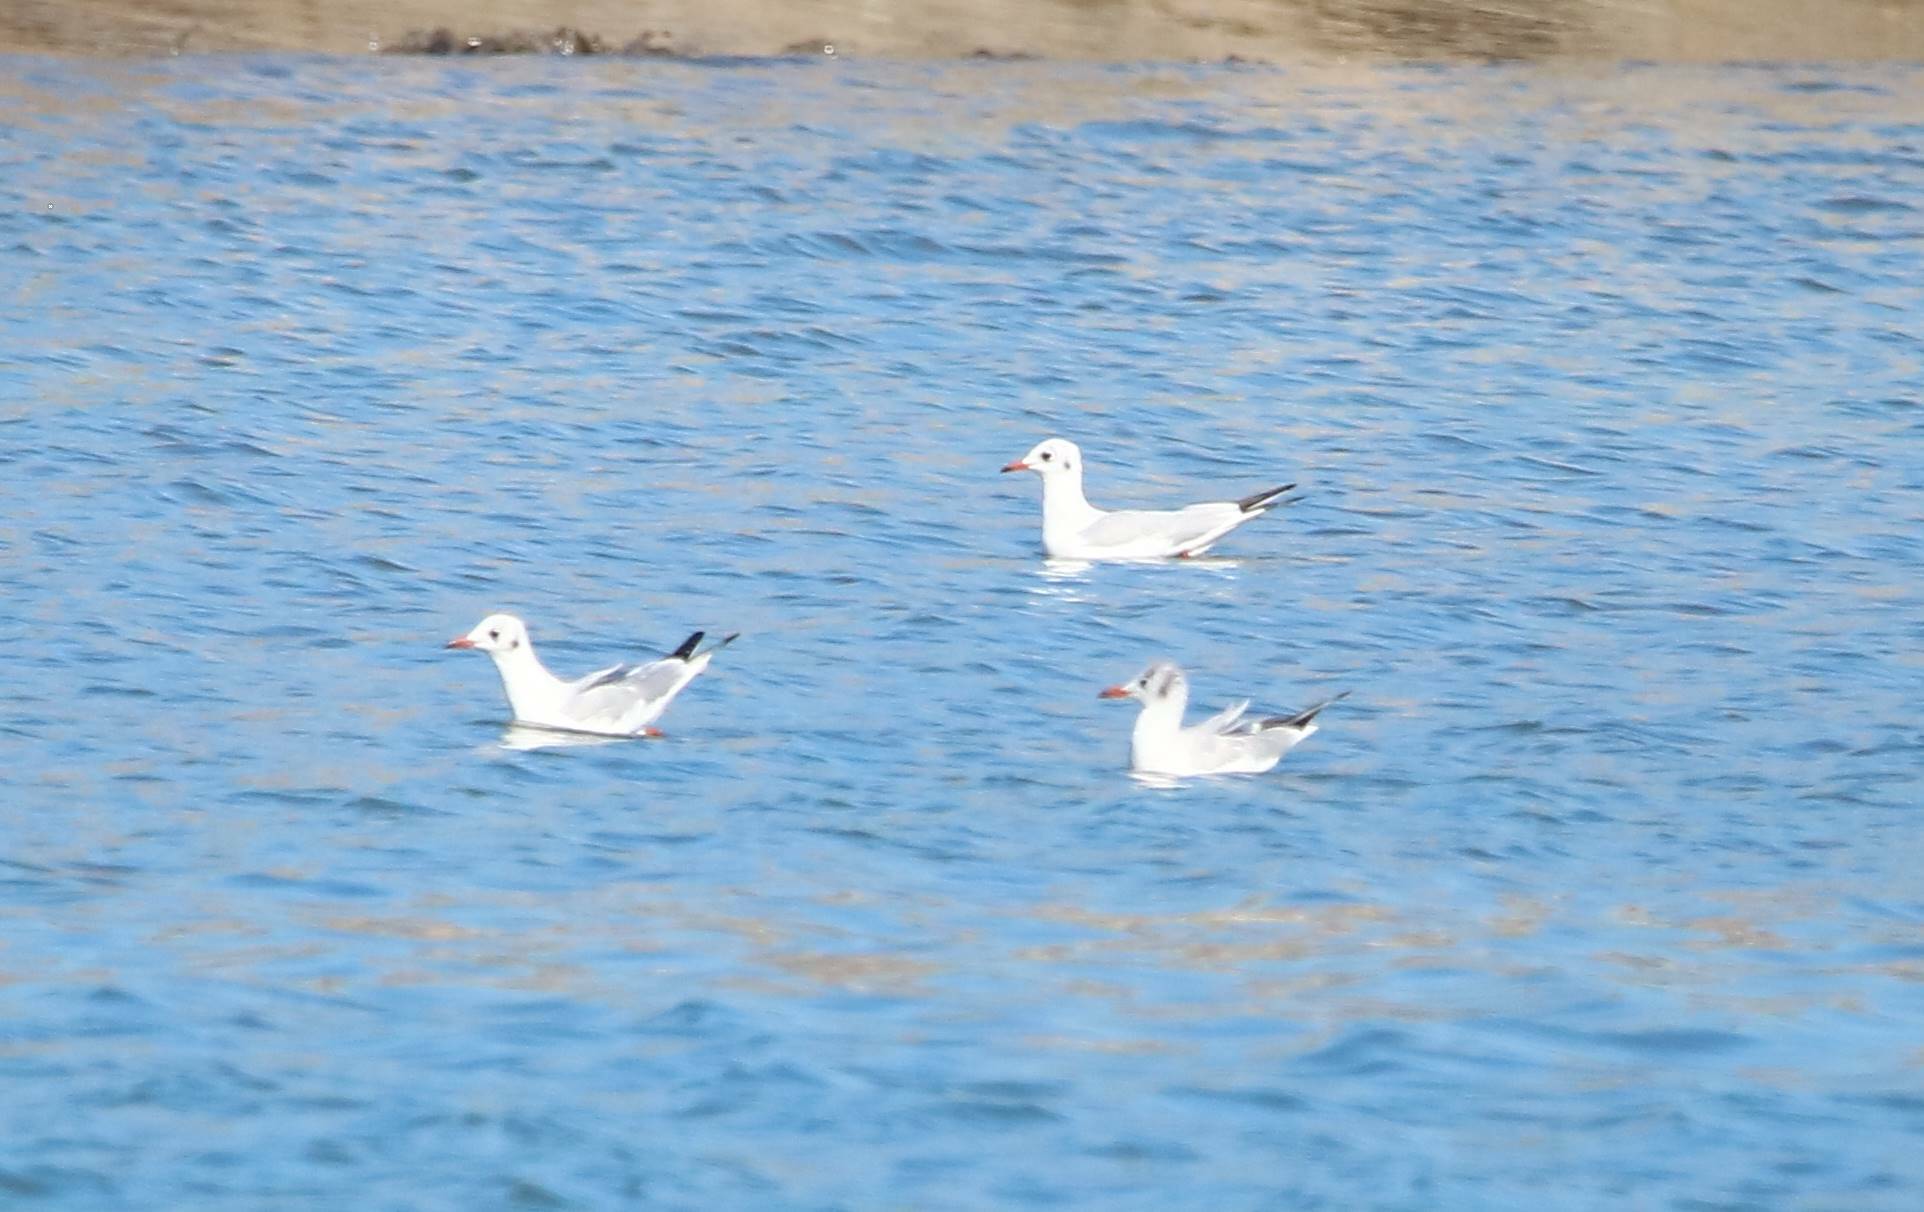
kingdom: Animalia
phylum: Chordata
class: Aves
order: Charadriiformes
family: Laridae
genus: Chroicocephalus
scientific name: Chroicocephalus ridibundus
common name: Black-headed gull
